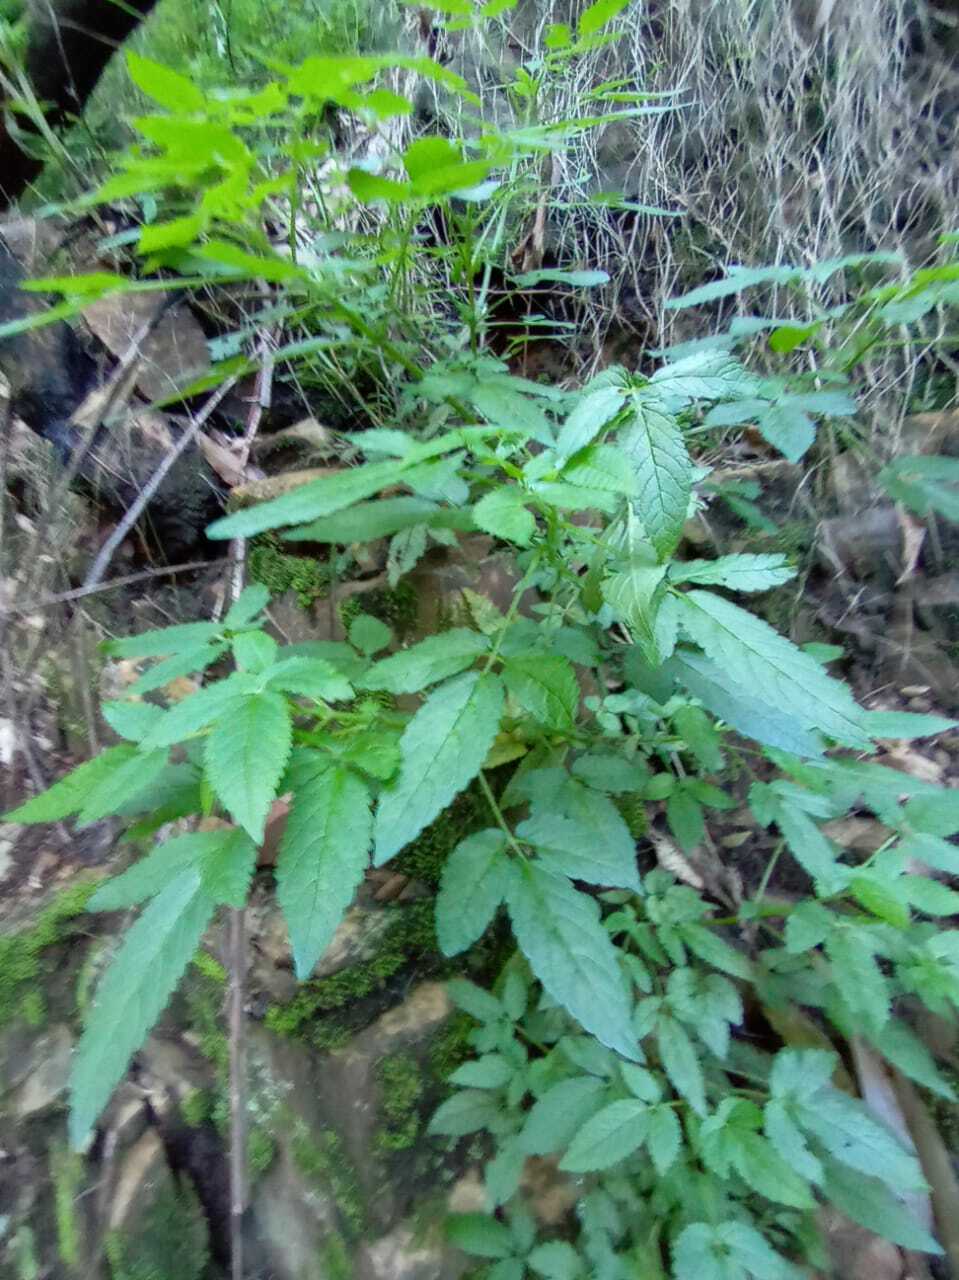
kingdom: Plantae
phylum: Tracheophyta
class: Magnoliopsida
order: Lamiales
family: Lamiaceae
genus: Cedronella
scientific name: Cedronella canariensis
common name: Canary islands balm
